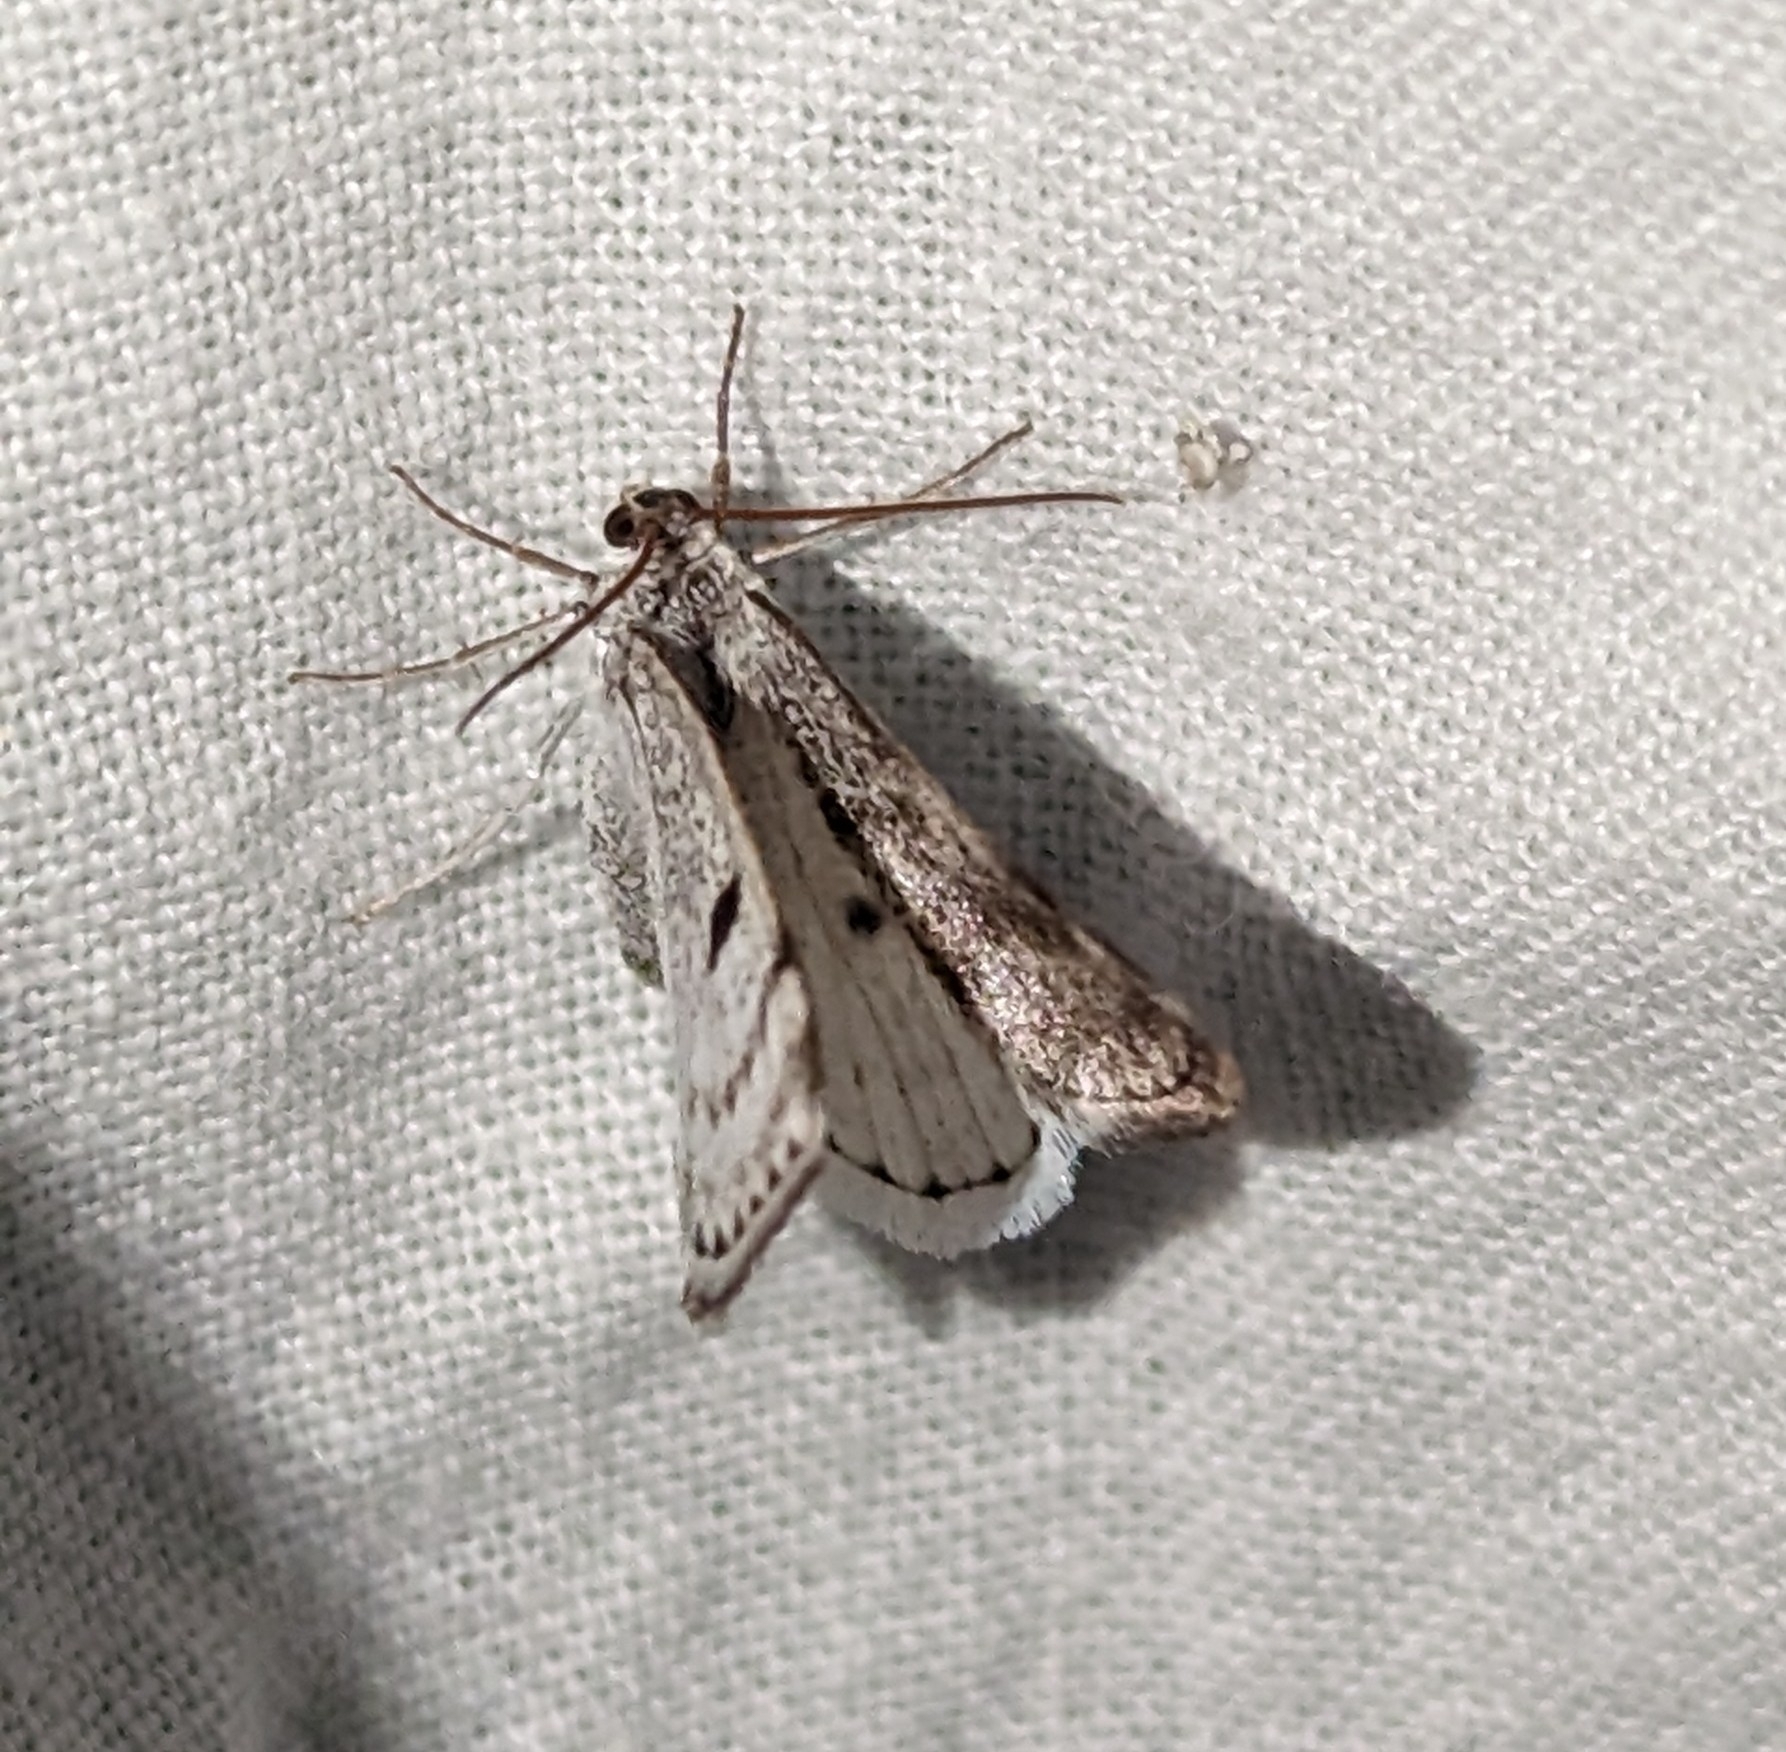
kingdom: Animalia
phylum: Arthropoda
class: Insecta
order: Lepidoptera
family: Geometridae
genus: Lomographa
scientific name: Lomographa semiclarata
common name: Bluish spring moth
